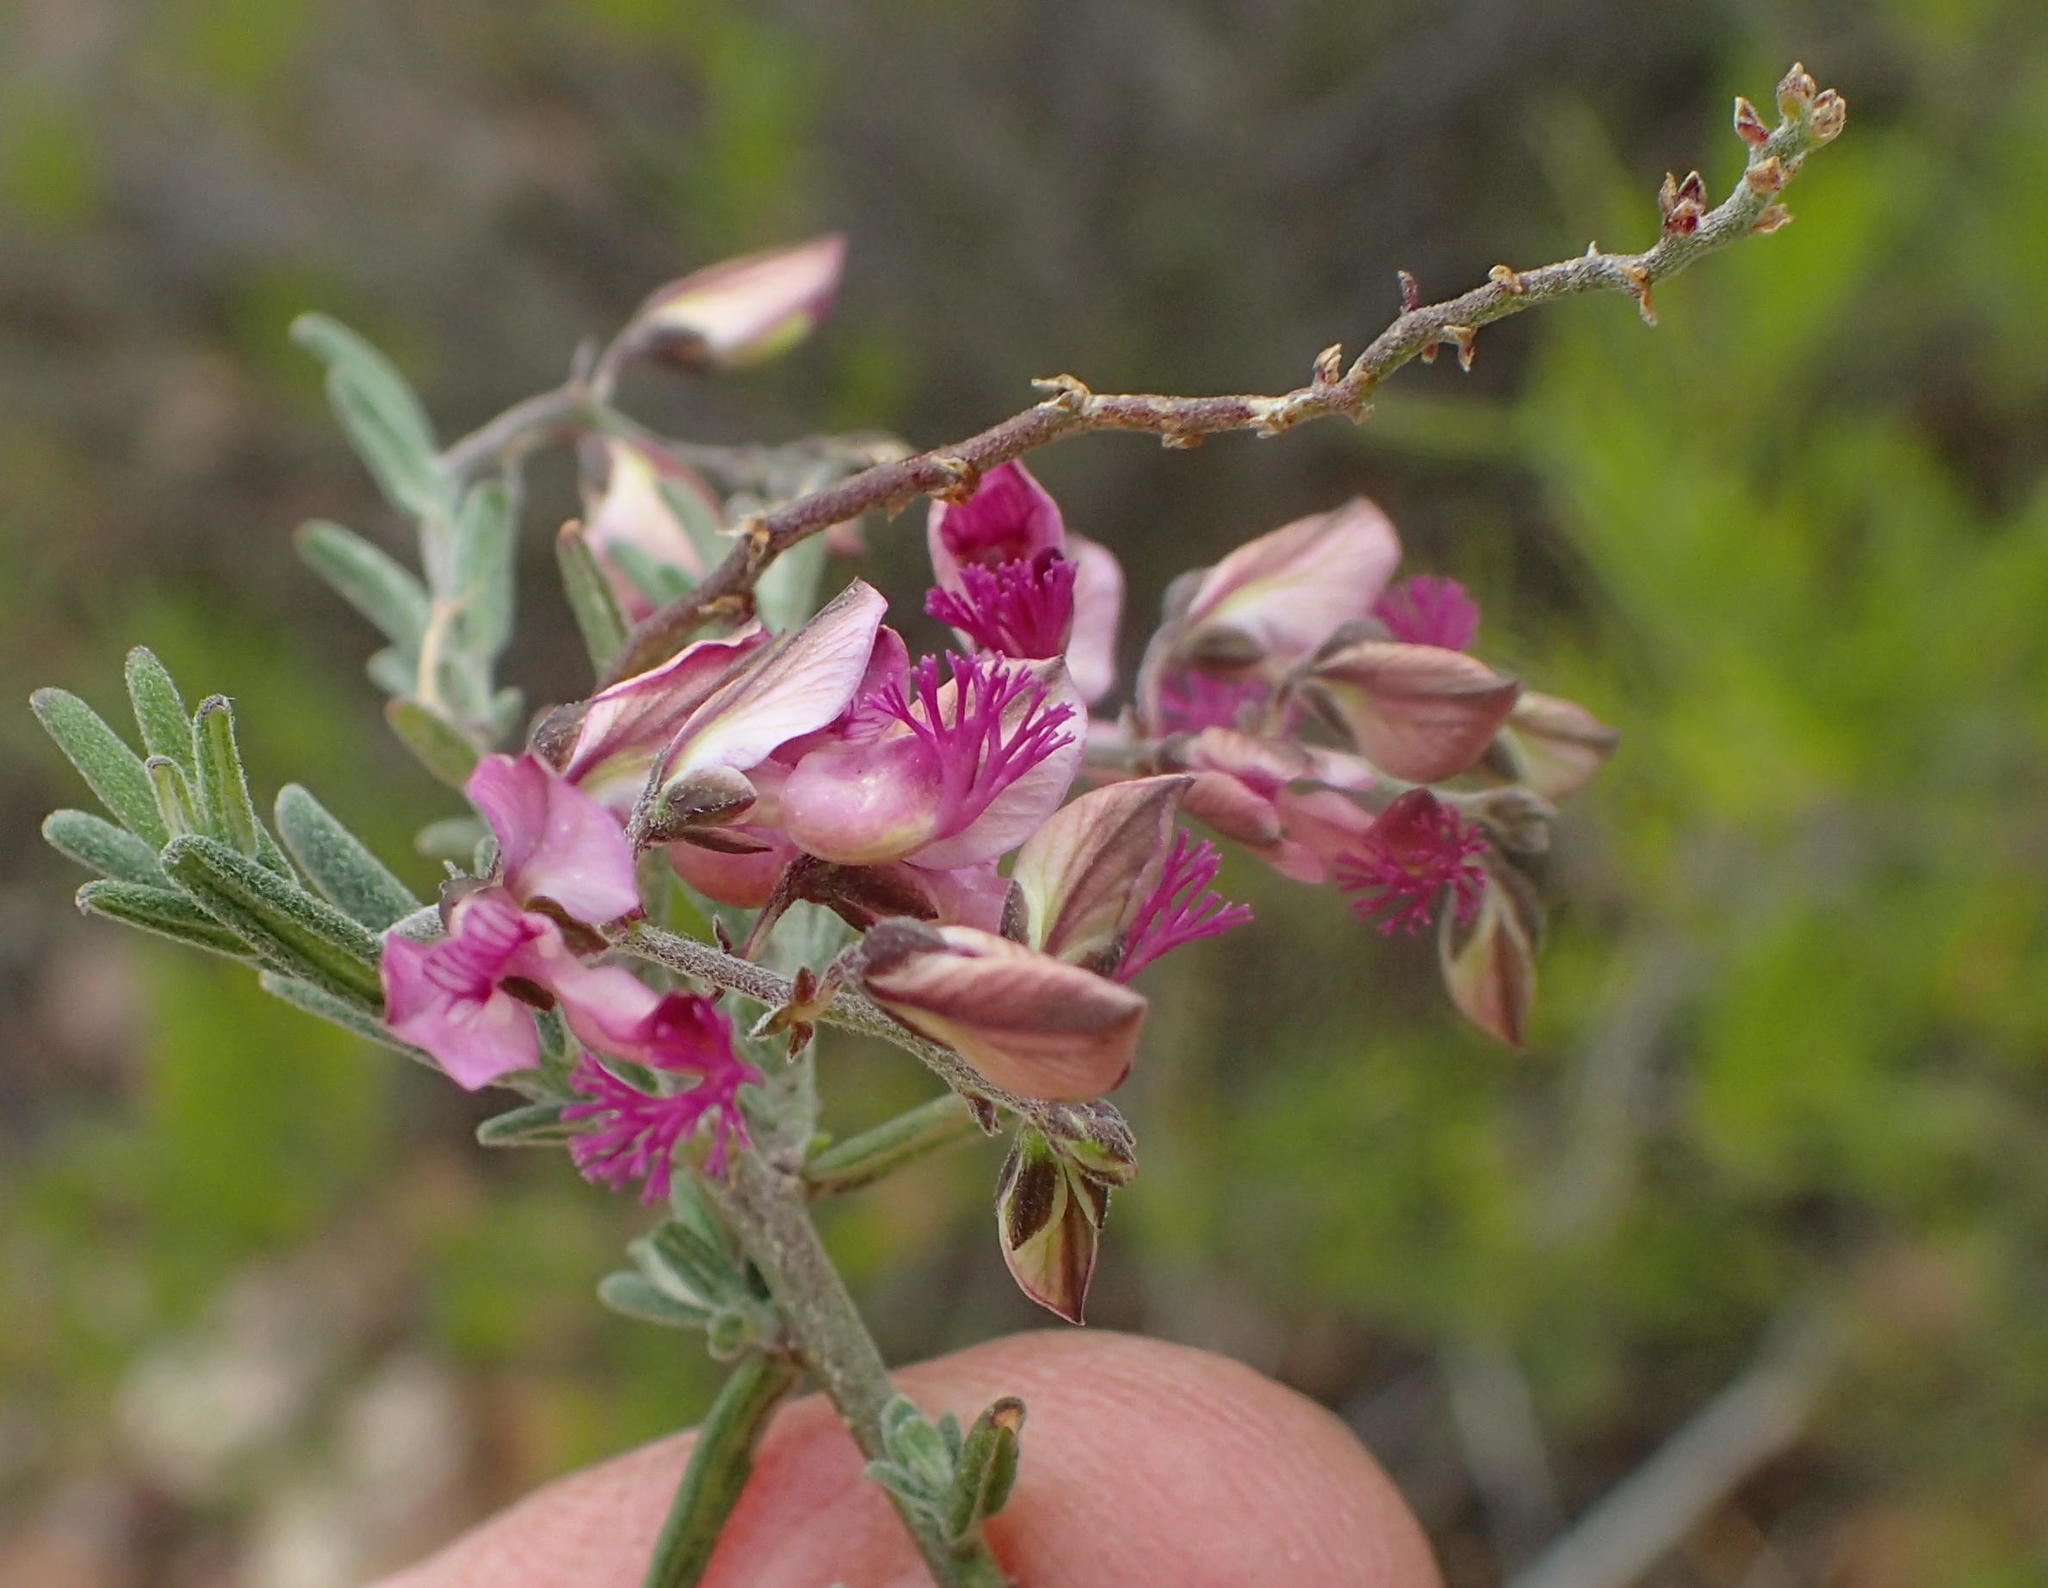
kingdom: Plantae
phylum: Tracheophyta
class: Magnoliopsida
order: Fabales
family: Polygalaceae
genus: Polygala
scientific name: Polygala scabra
